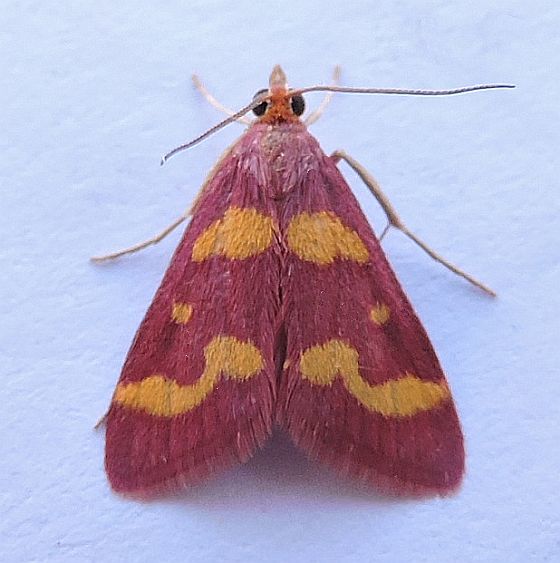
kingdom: Animalia
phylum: Arthropoda
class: Insecta
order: Lepidoptera
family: Crambidae
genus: Pyrausta
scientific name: Pyrausta tyralis
